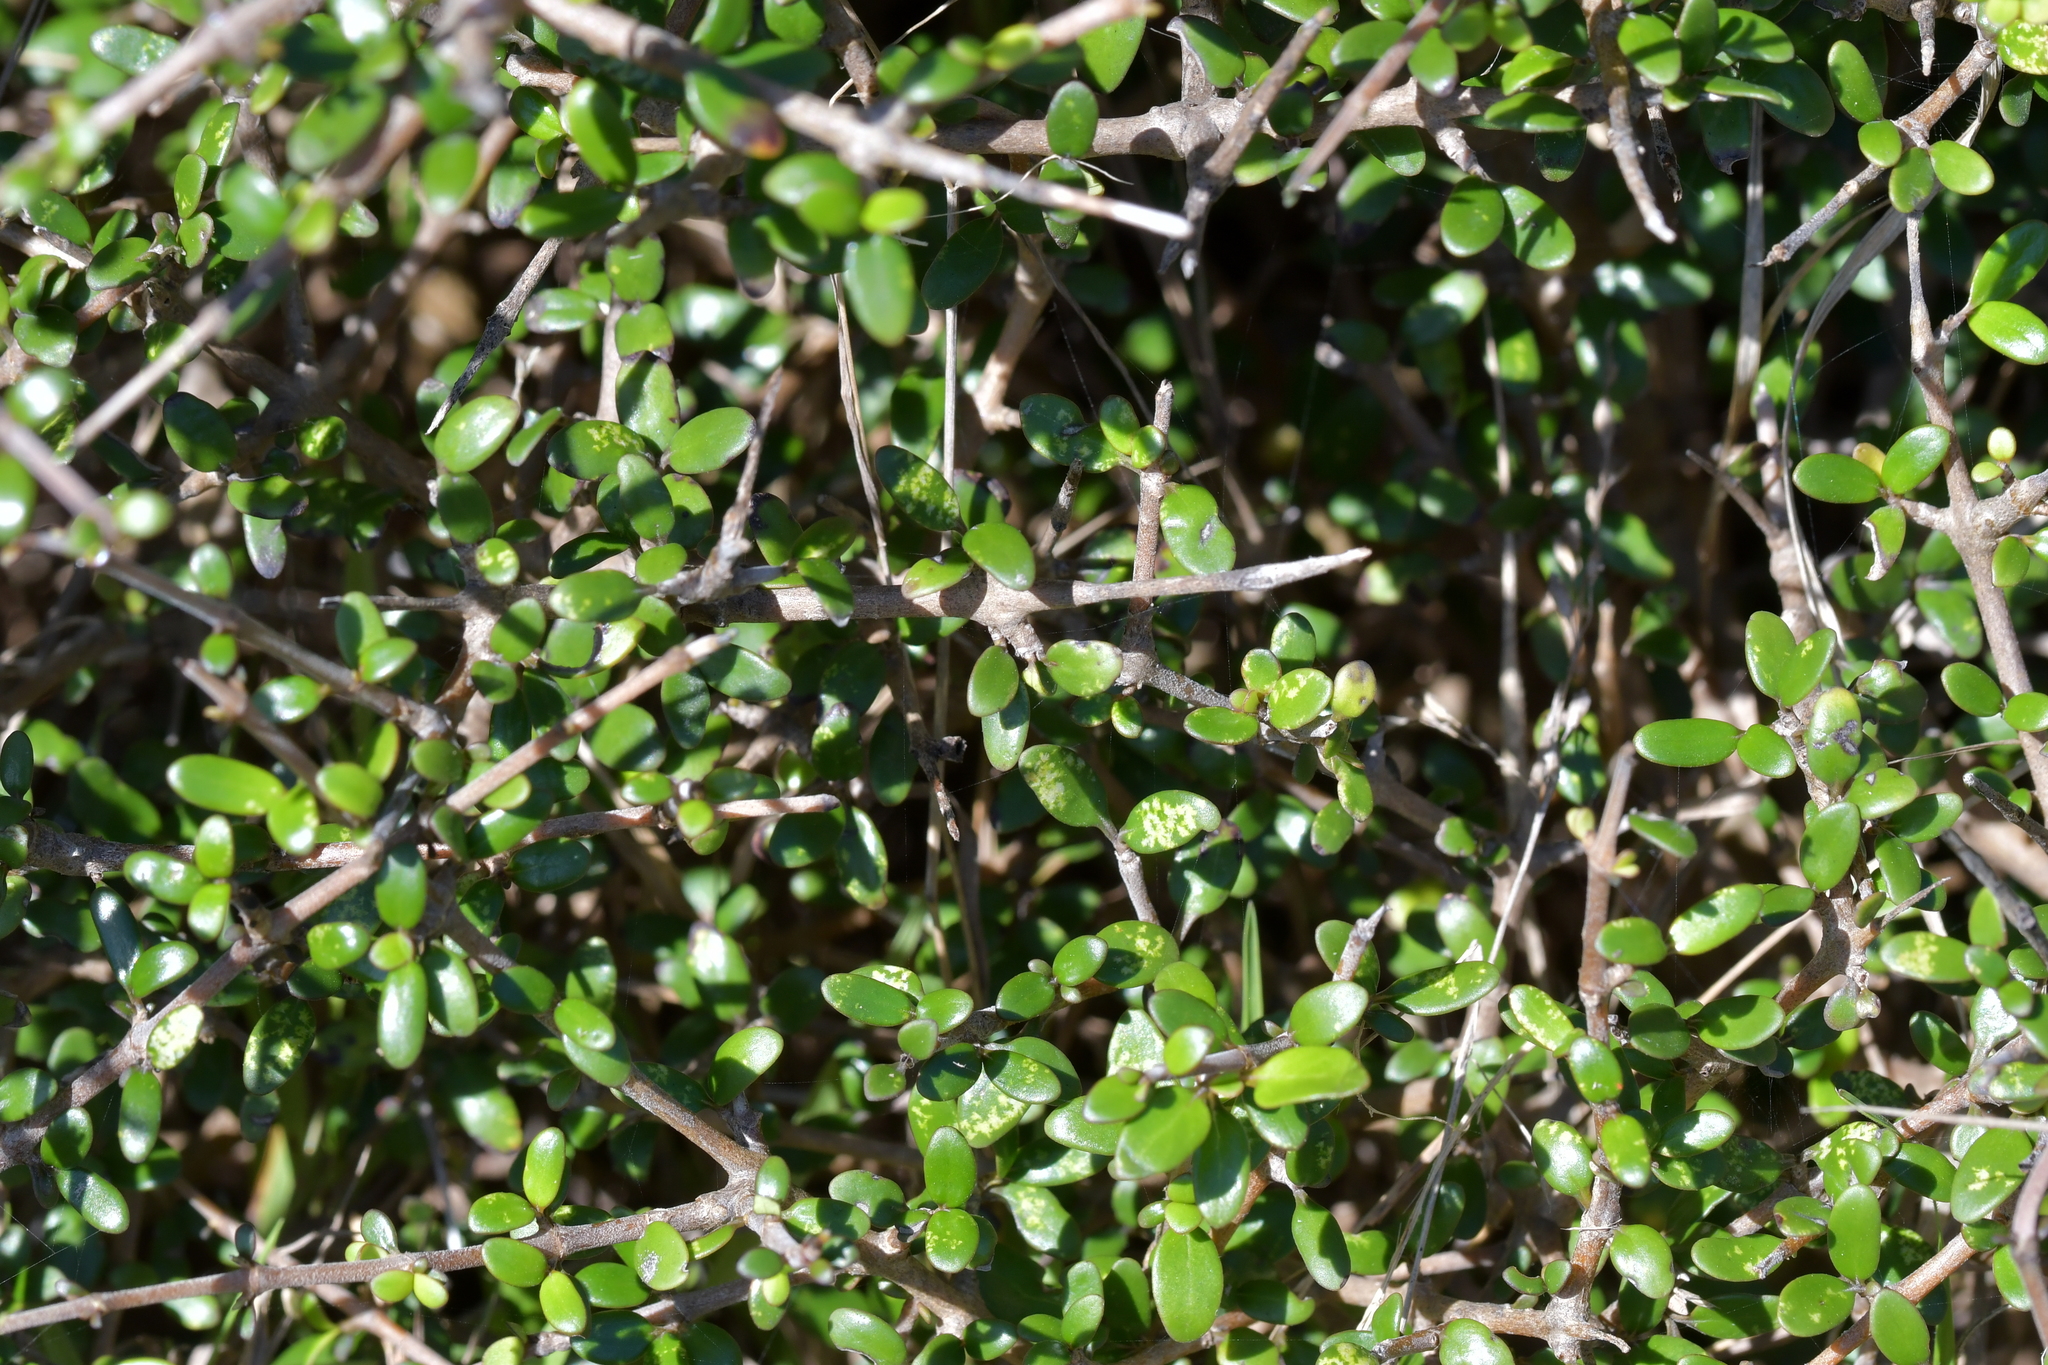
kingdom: Plantae
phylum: Tracheophyta
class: Magnoliopsida
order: Gentianales
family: Rubiaceae
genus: Coprosma
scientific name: Coprosma propinqua
